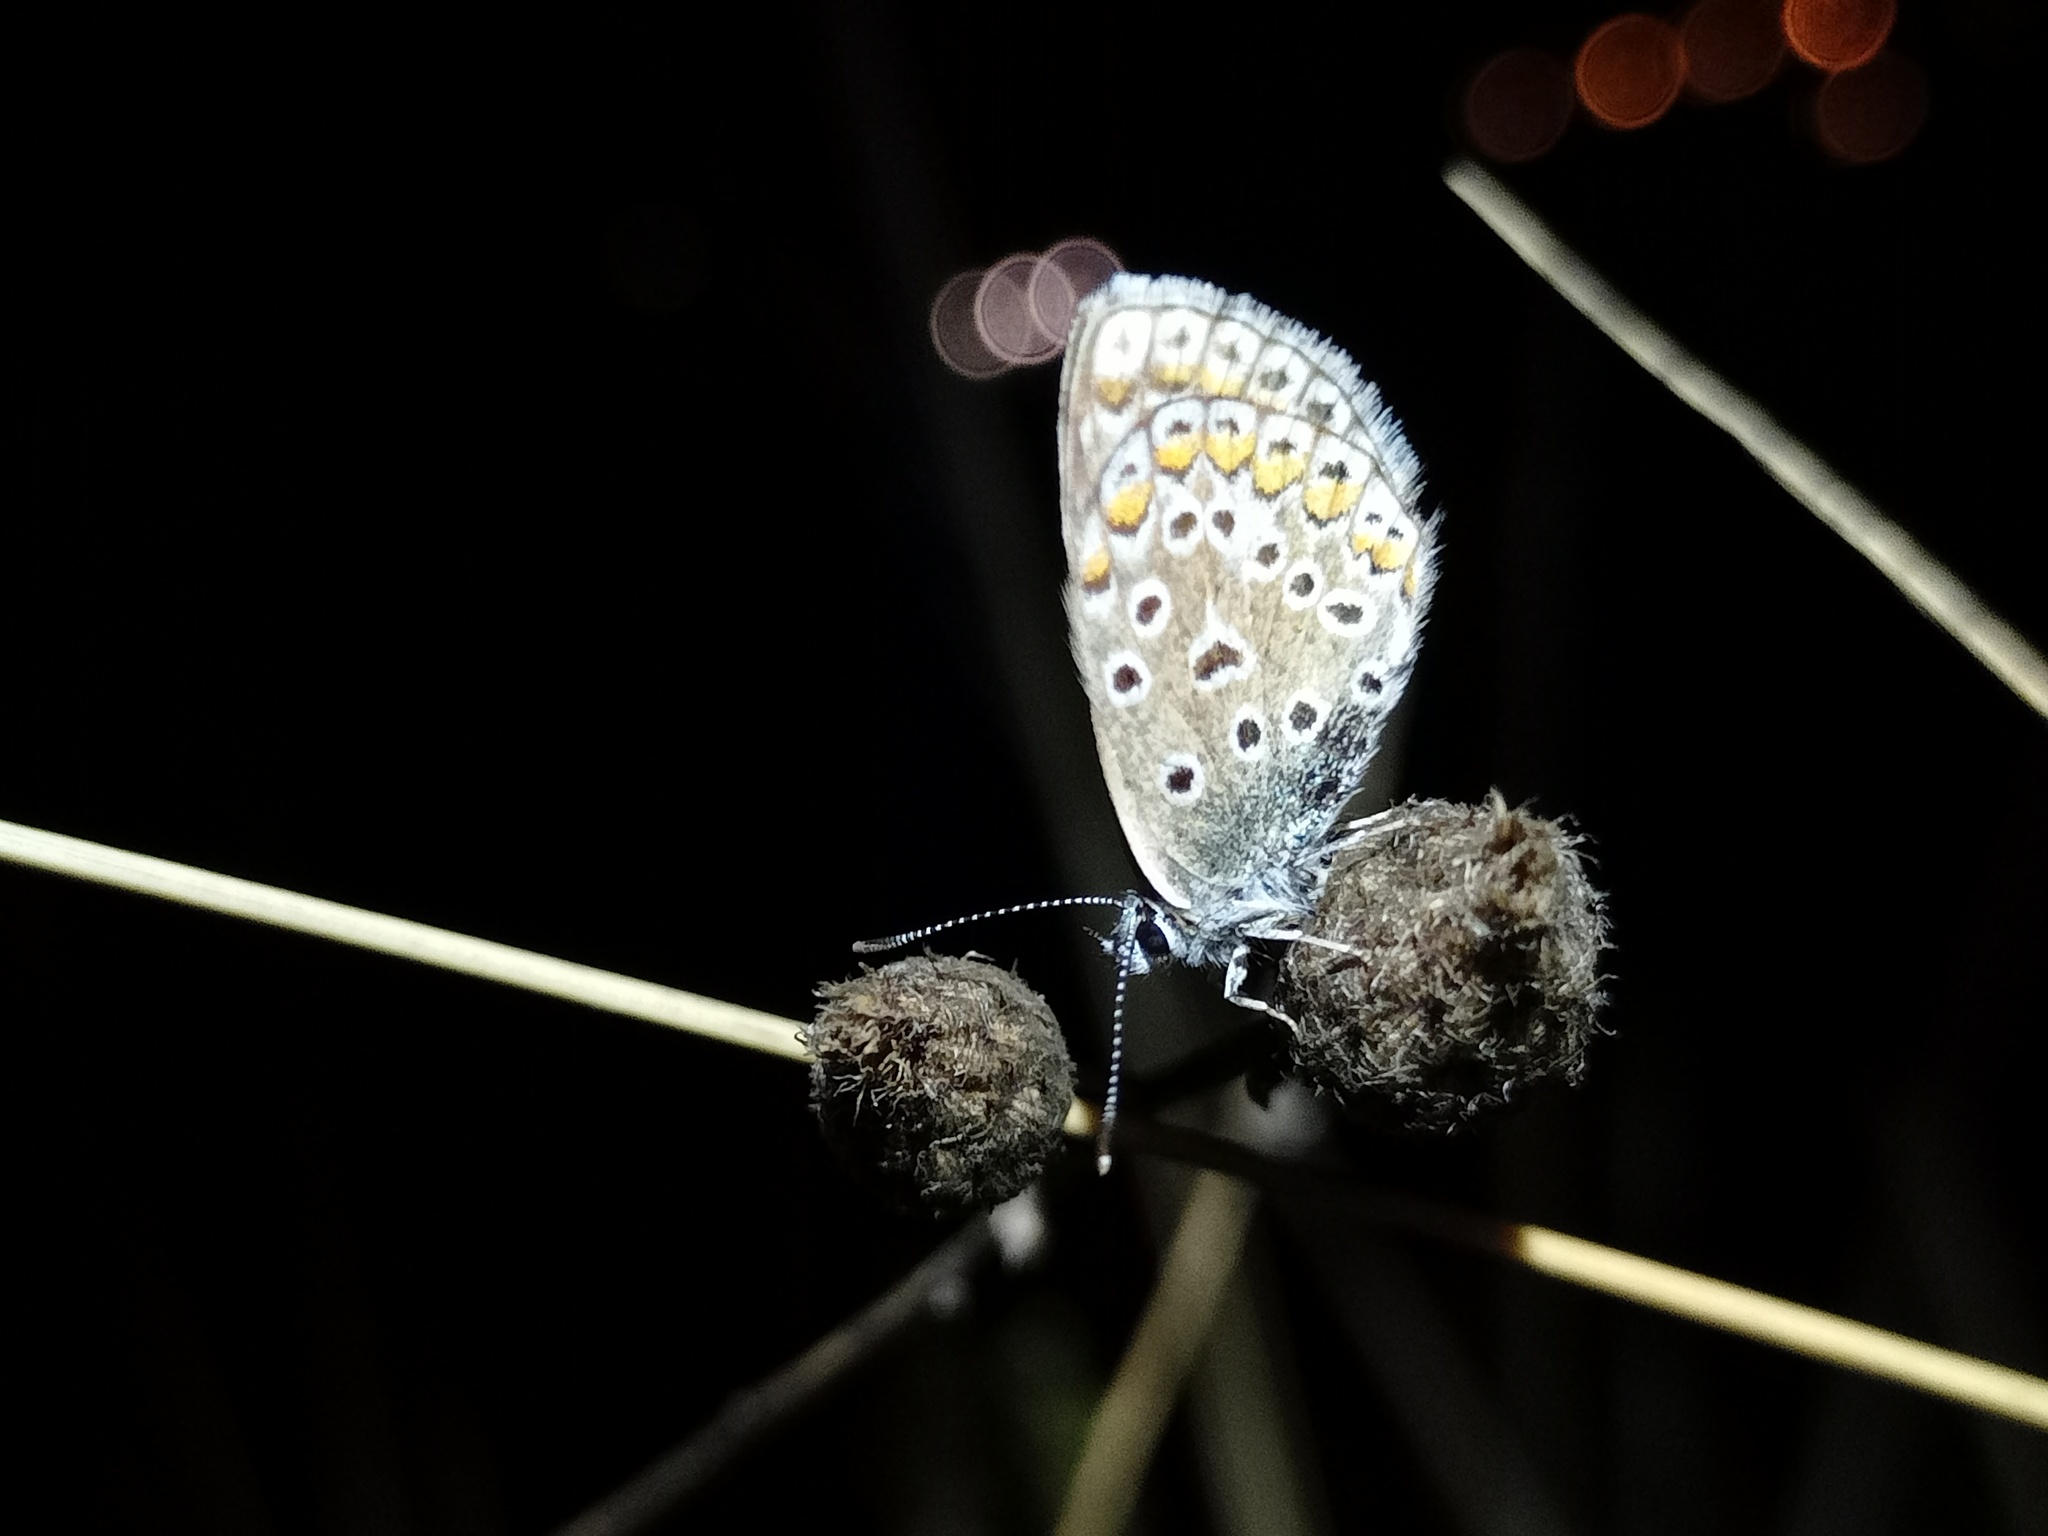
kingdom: Animalia
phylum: Arthropoda
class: Insecta
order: Lepidoptera
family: Lycaenidae
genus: Polyommatus
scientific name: Polyommatus icarus
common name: Common blue
